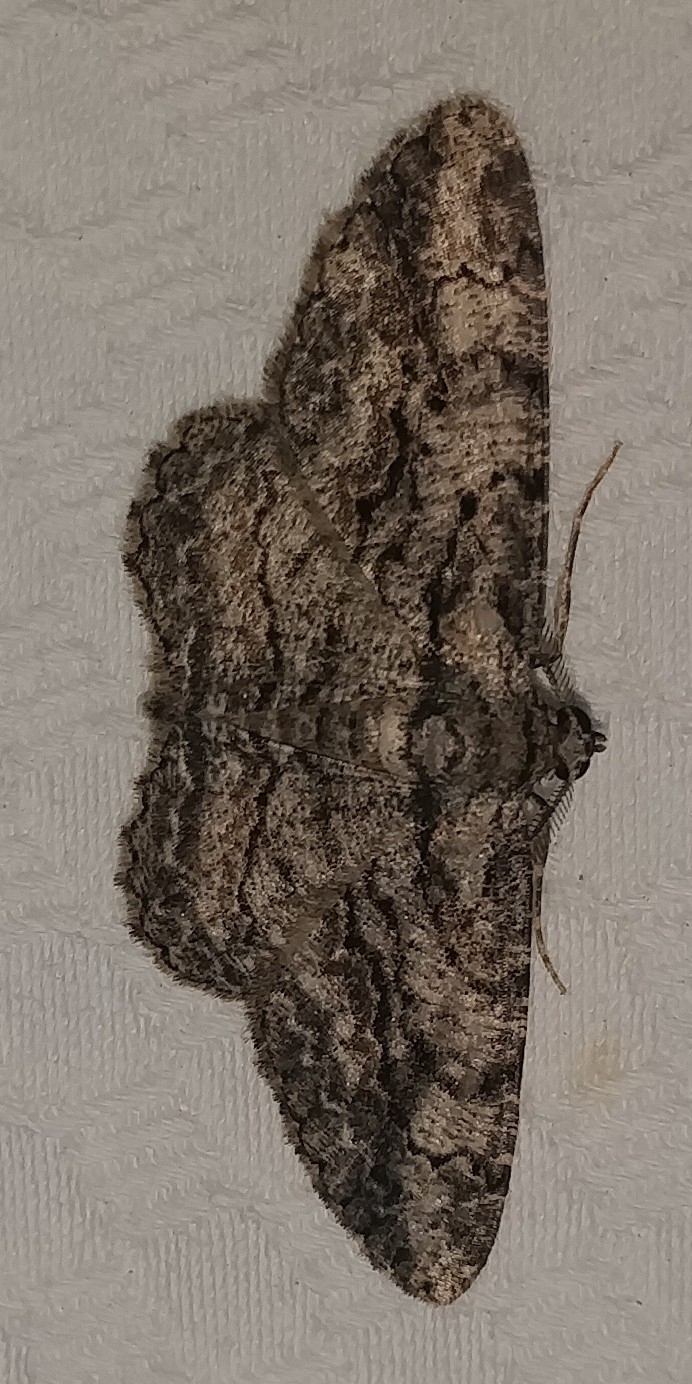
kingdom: Animalia
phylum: Arthropoda
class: Insecta
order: Lepidoptera
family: Geometridae
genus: Anavitrinella
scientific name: Anavitrinella pampinaria
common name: Common gray
